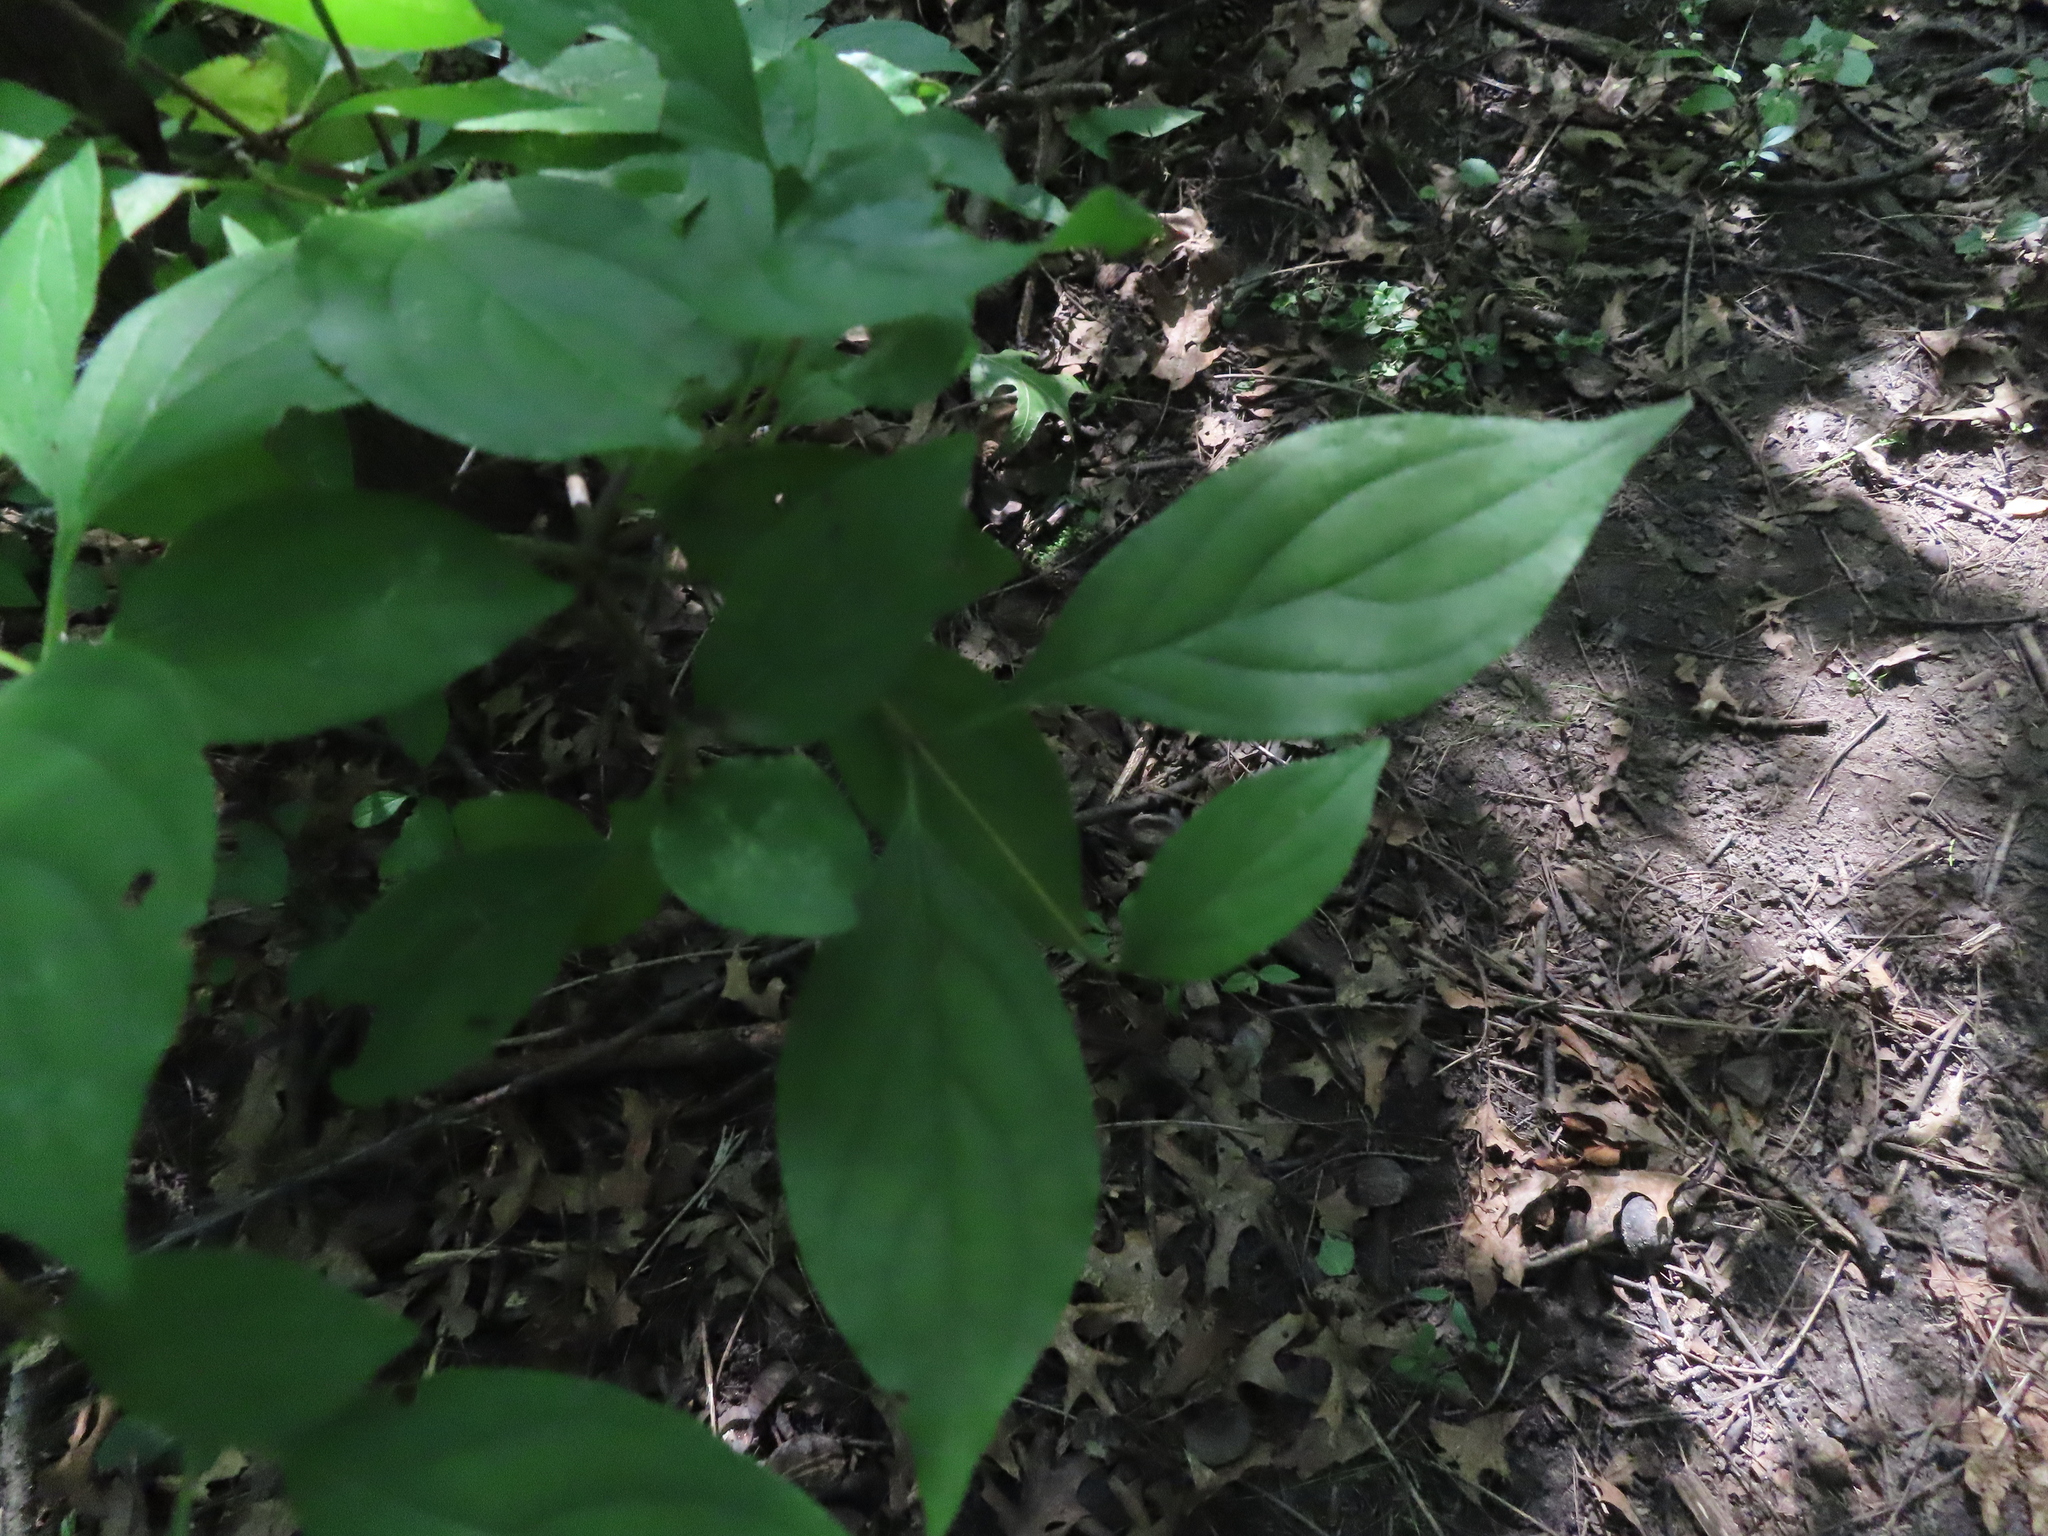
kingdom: Animalia
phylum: Arthropoda
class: Insecta
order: Diptera
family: Agromyzidae
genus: Phytomyza
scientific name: Phytomyza agromyzina
